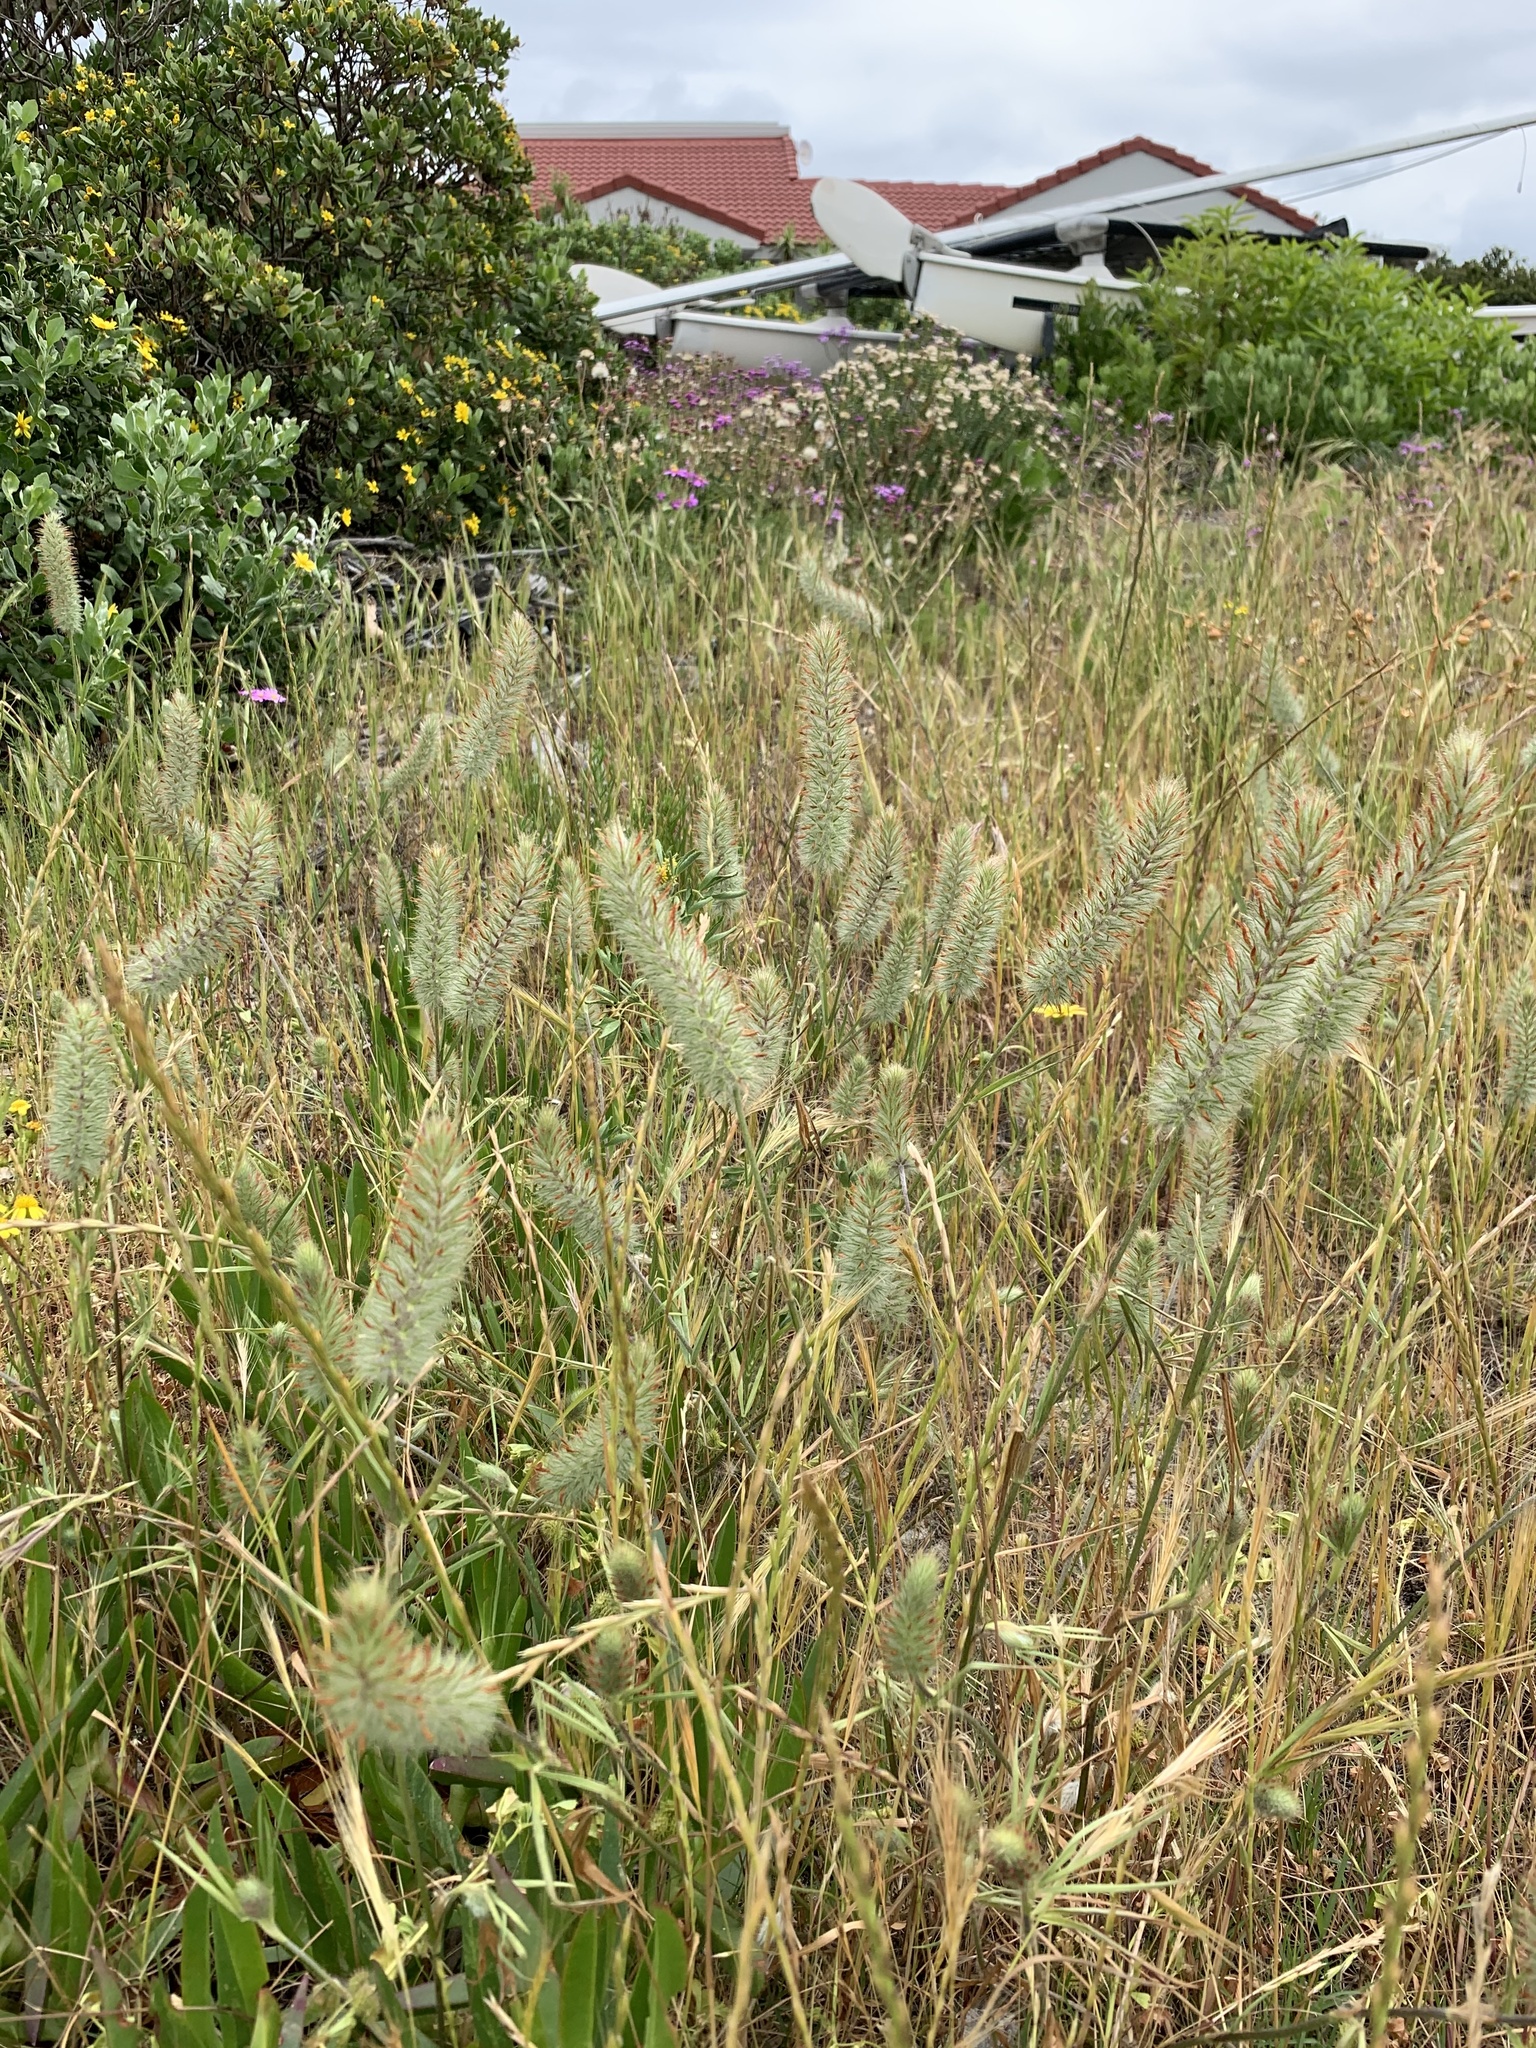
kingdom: Plantae
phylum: Tracheophyta
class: Magnoliopsida
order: Fabales
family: Fabaceae
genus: Trifolium
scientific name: Trifolium angustifolium
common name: Narrow clover
